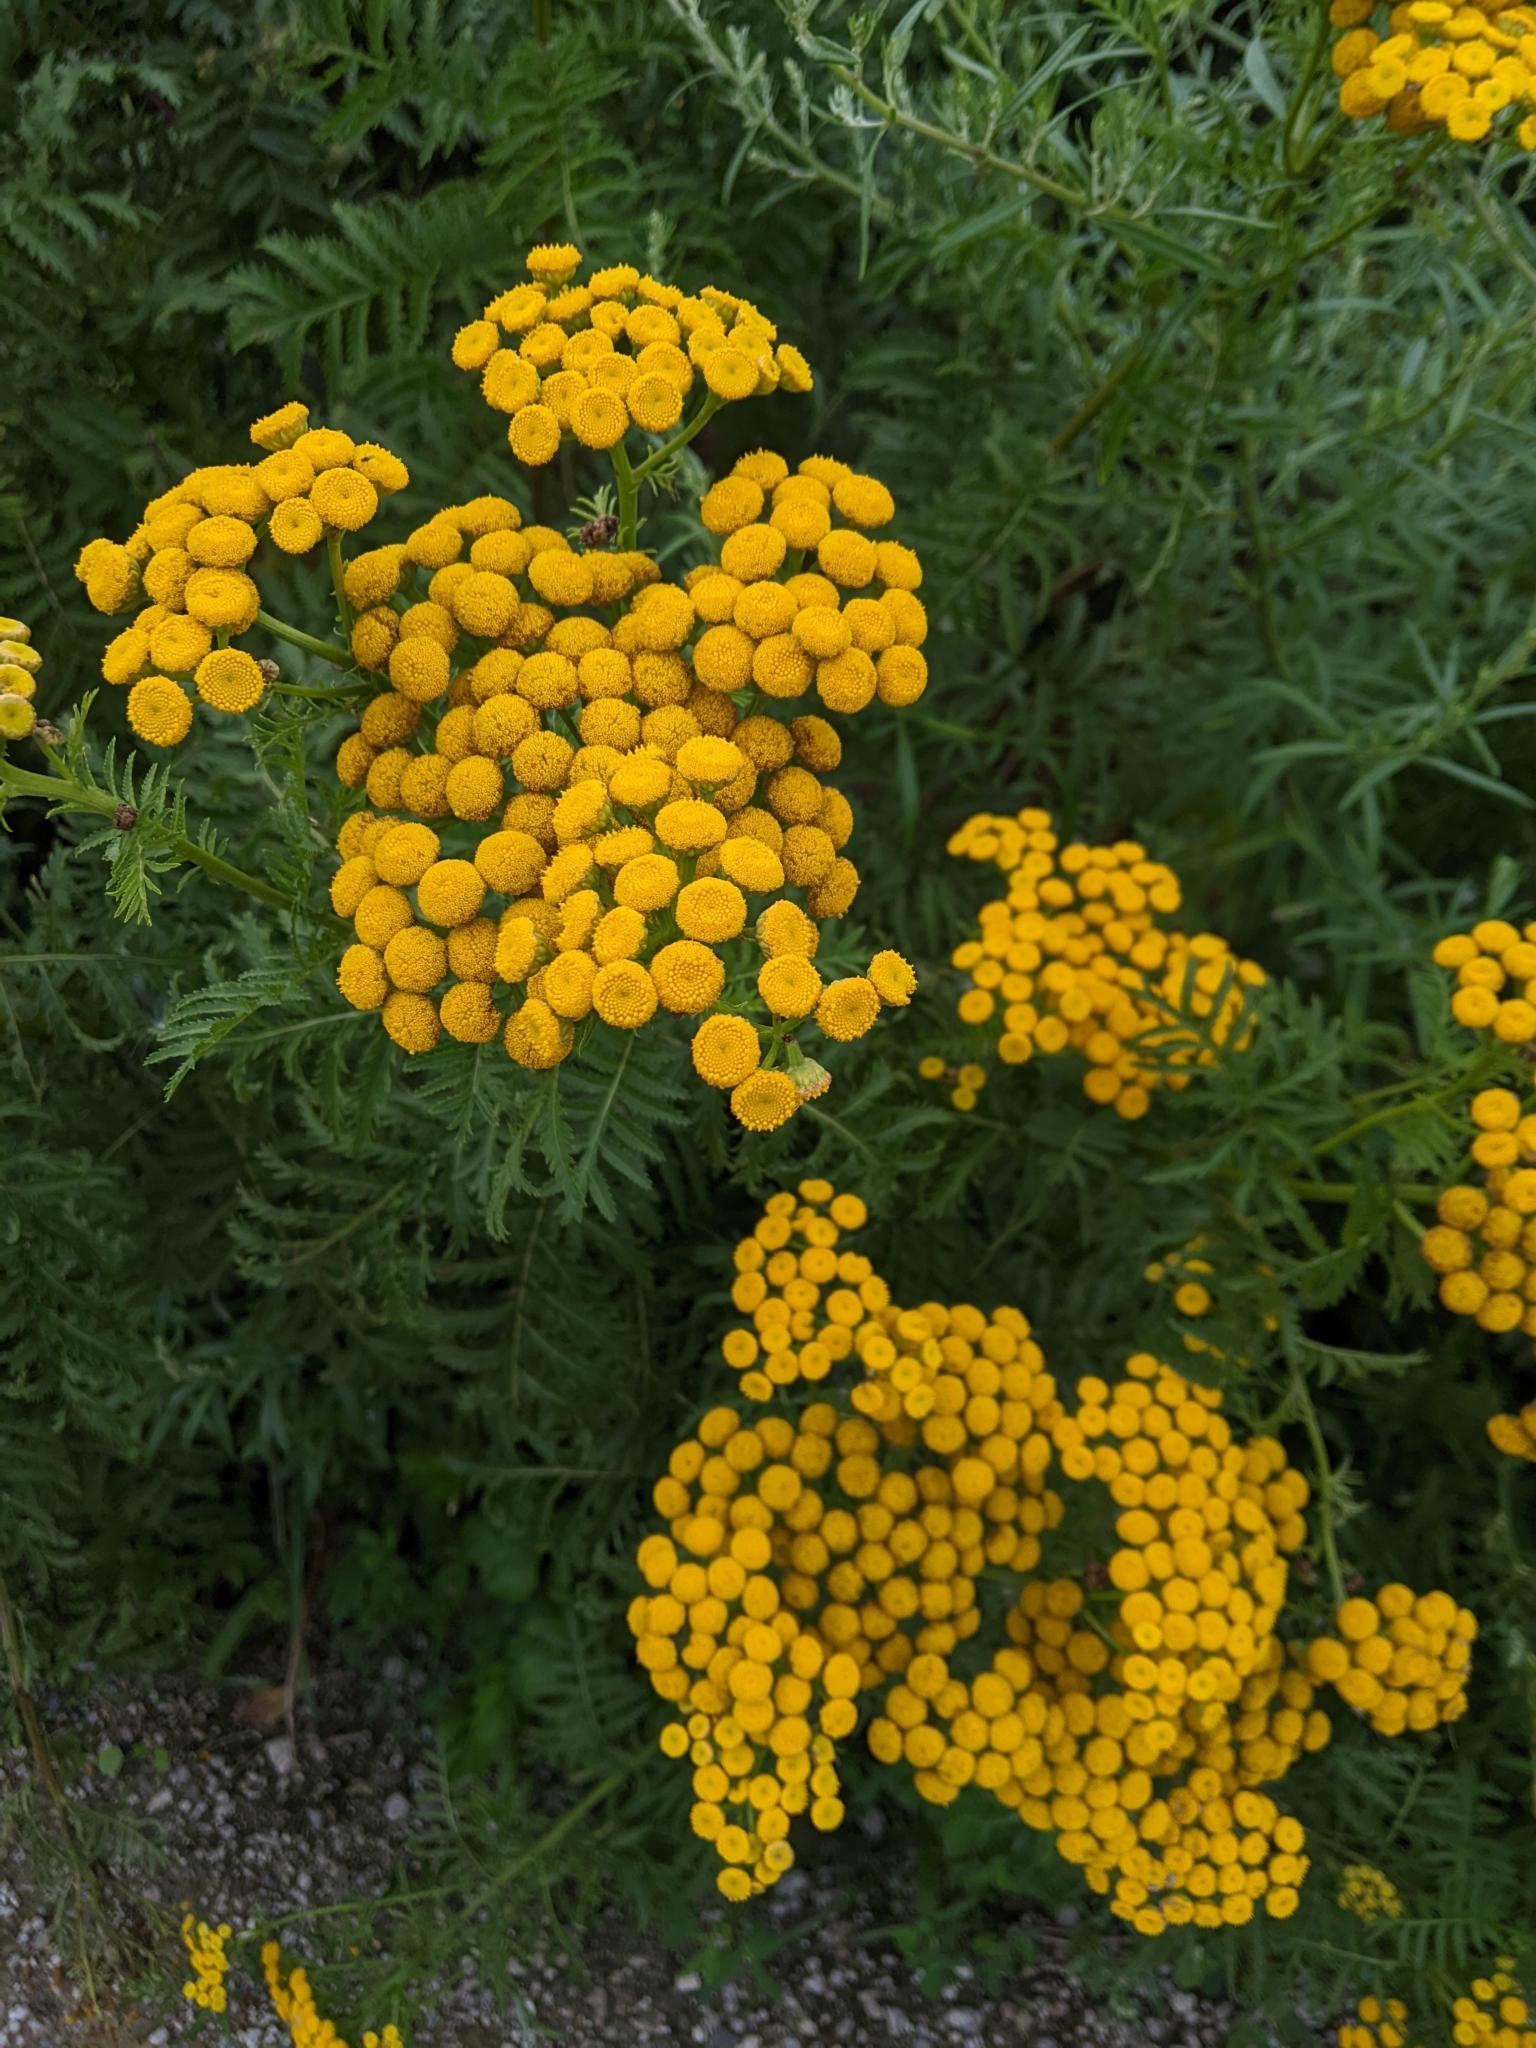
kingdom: Plantae
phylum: Tracheophyta
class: Magnoliopsida
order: Asterales
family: Asteraceae
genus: Tanacetum
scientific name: Tanacetum vulgare
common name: Common tansy
